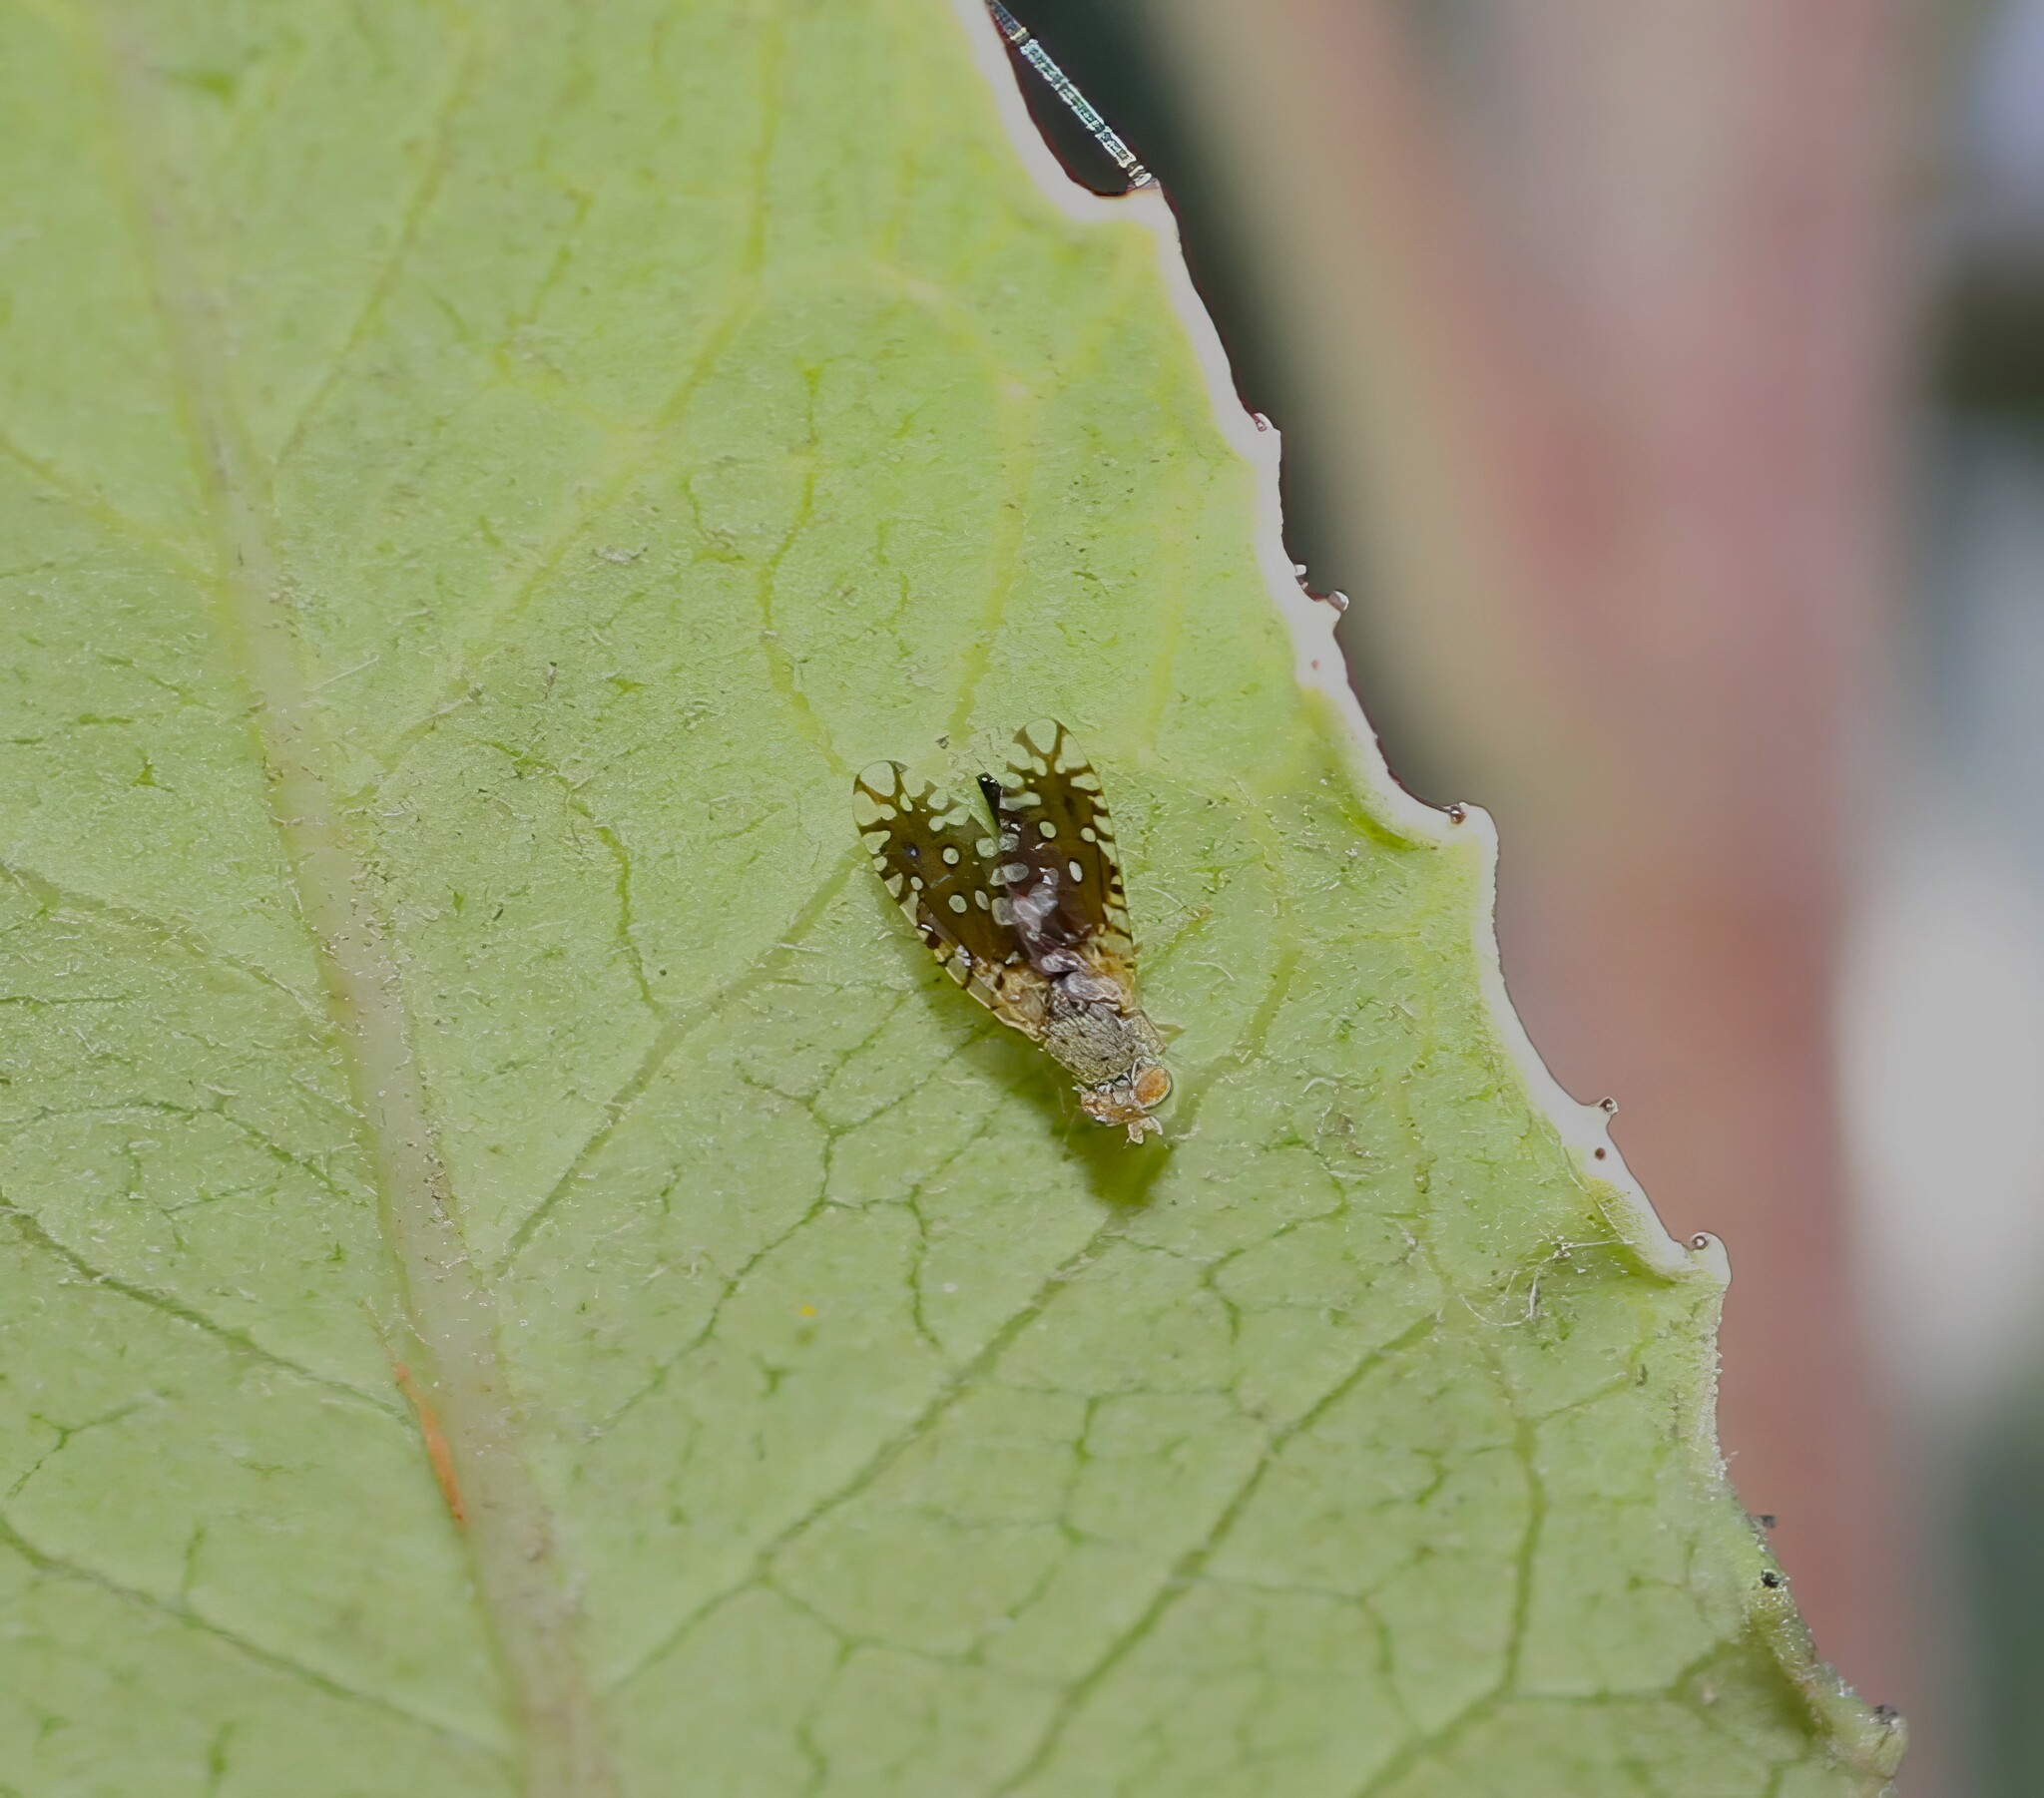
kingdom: Animalia
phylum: Arthropoda
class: Insecta
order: Diptera
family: Tephritidae
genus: Euaresta
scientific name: Euaresta stigmatica
